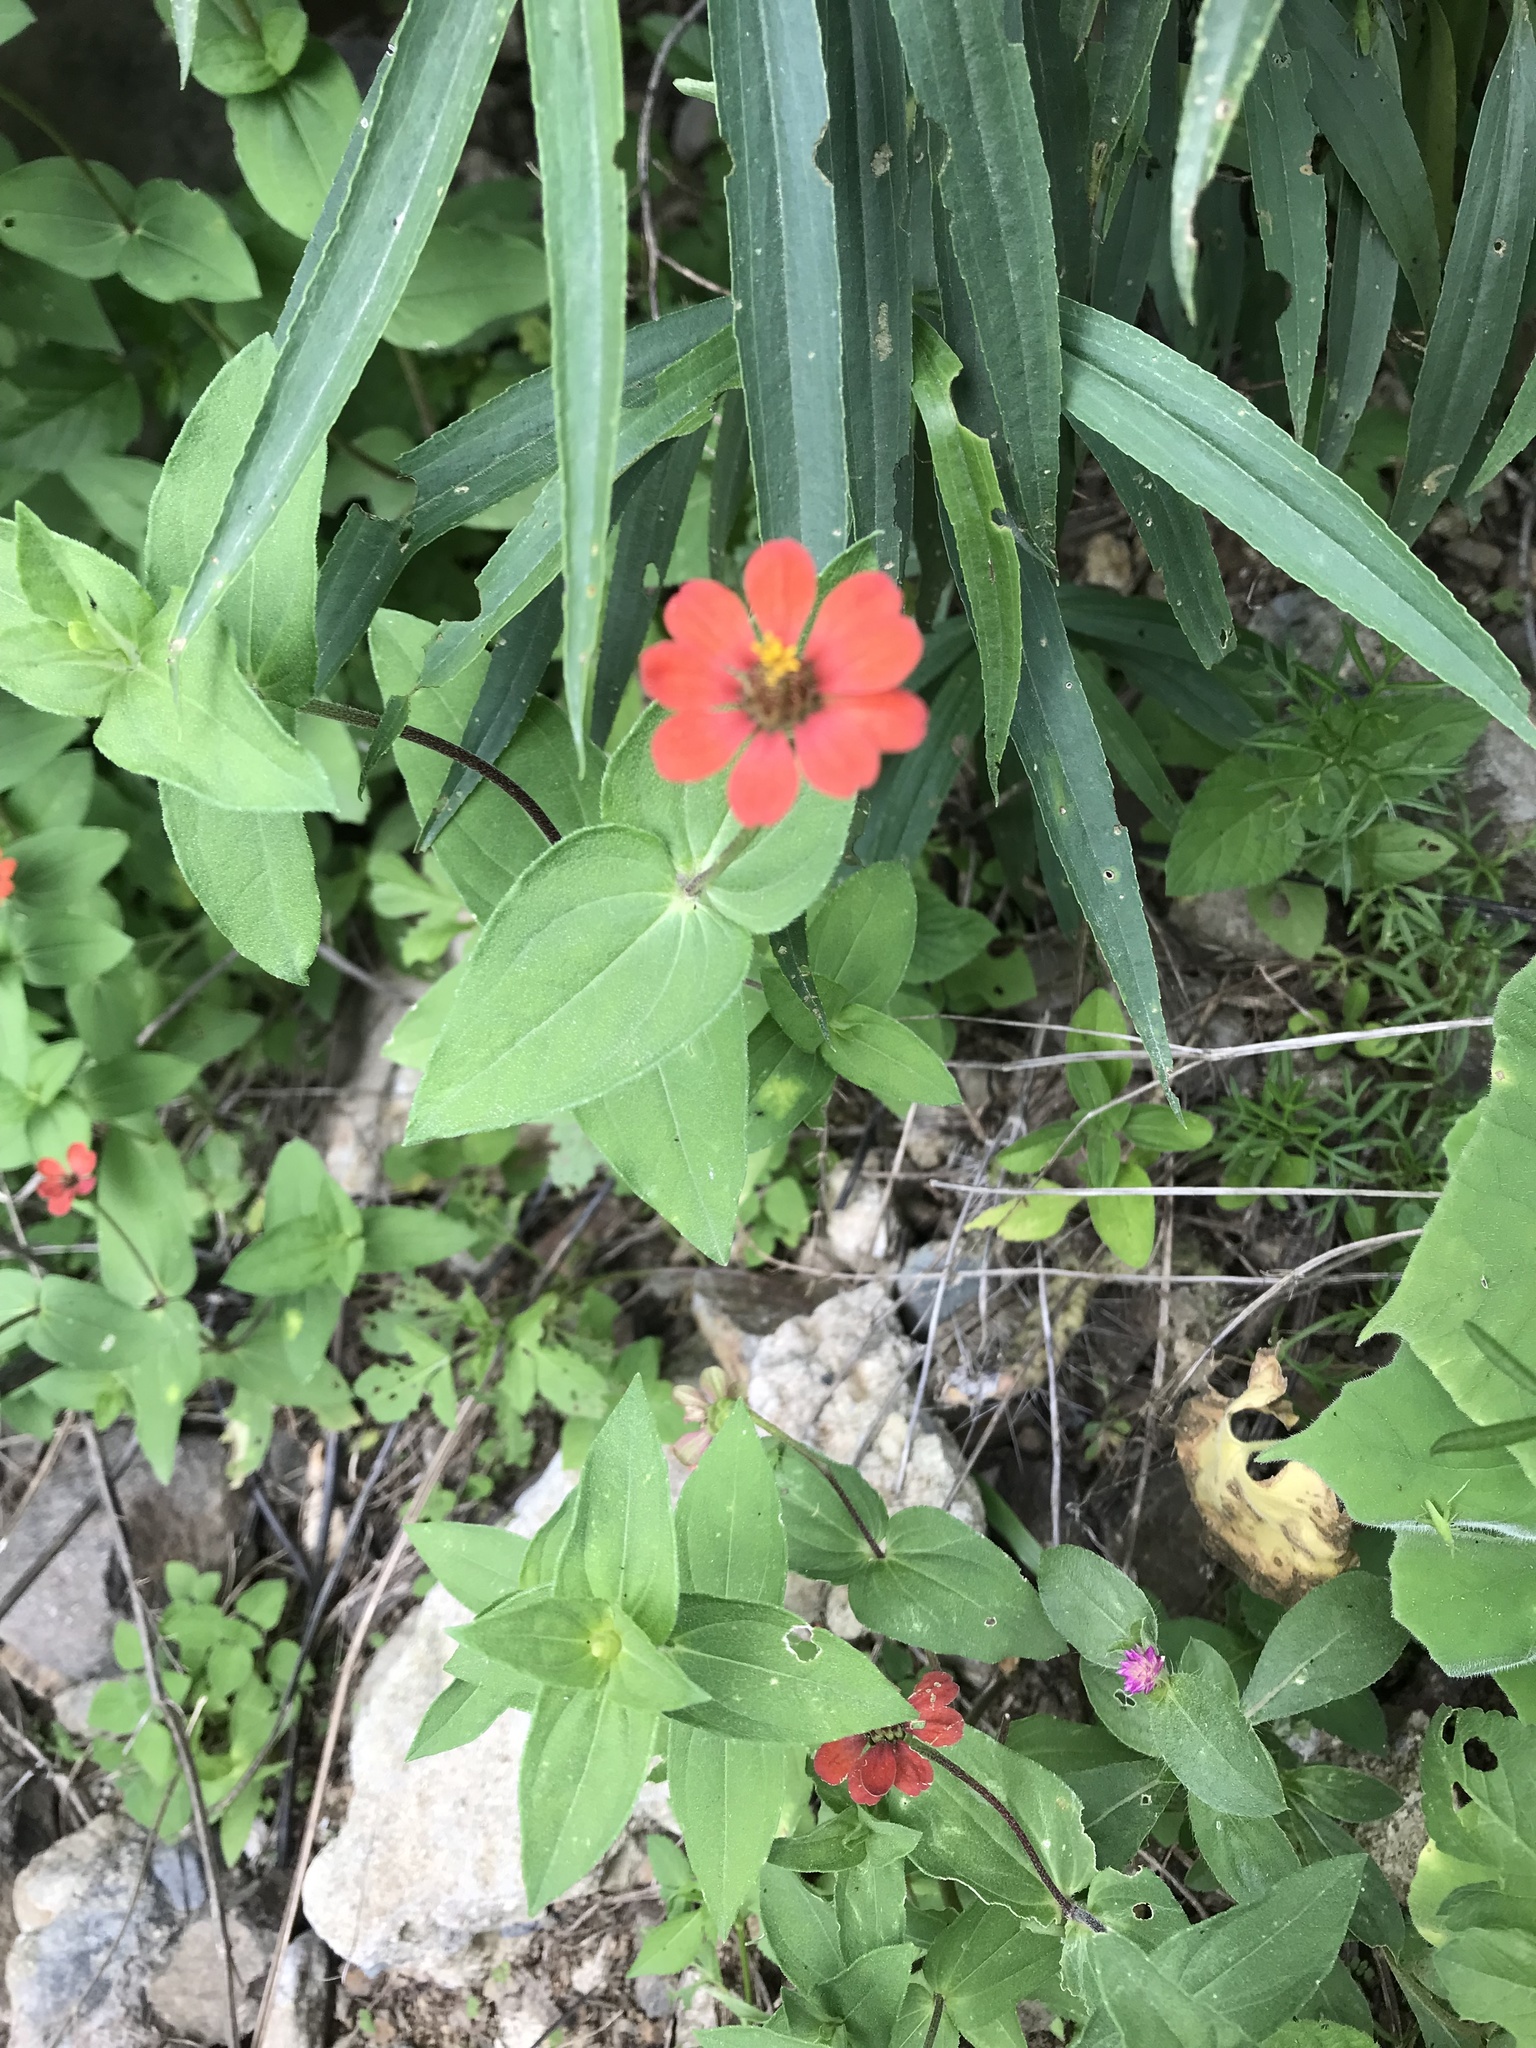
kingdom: Plantae
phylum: Tracheophyta
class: Magnoliopsida
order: Asterales
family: Asteraceae
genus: Zinnia
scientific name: Zinnia peruviana
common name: Peruvian zinnia
